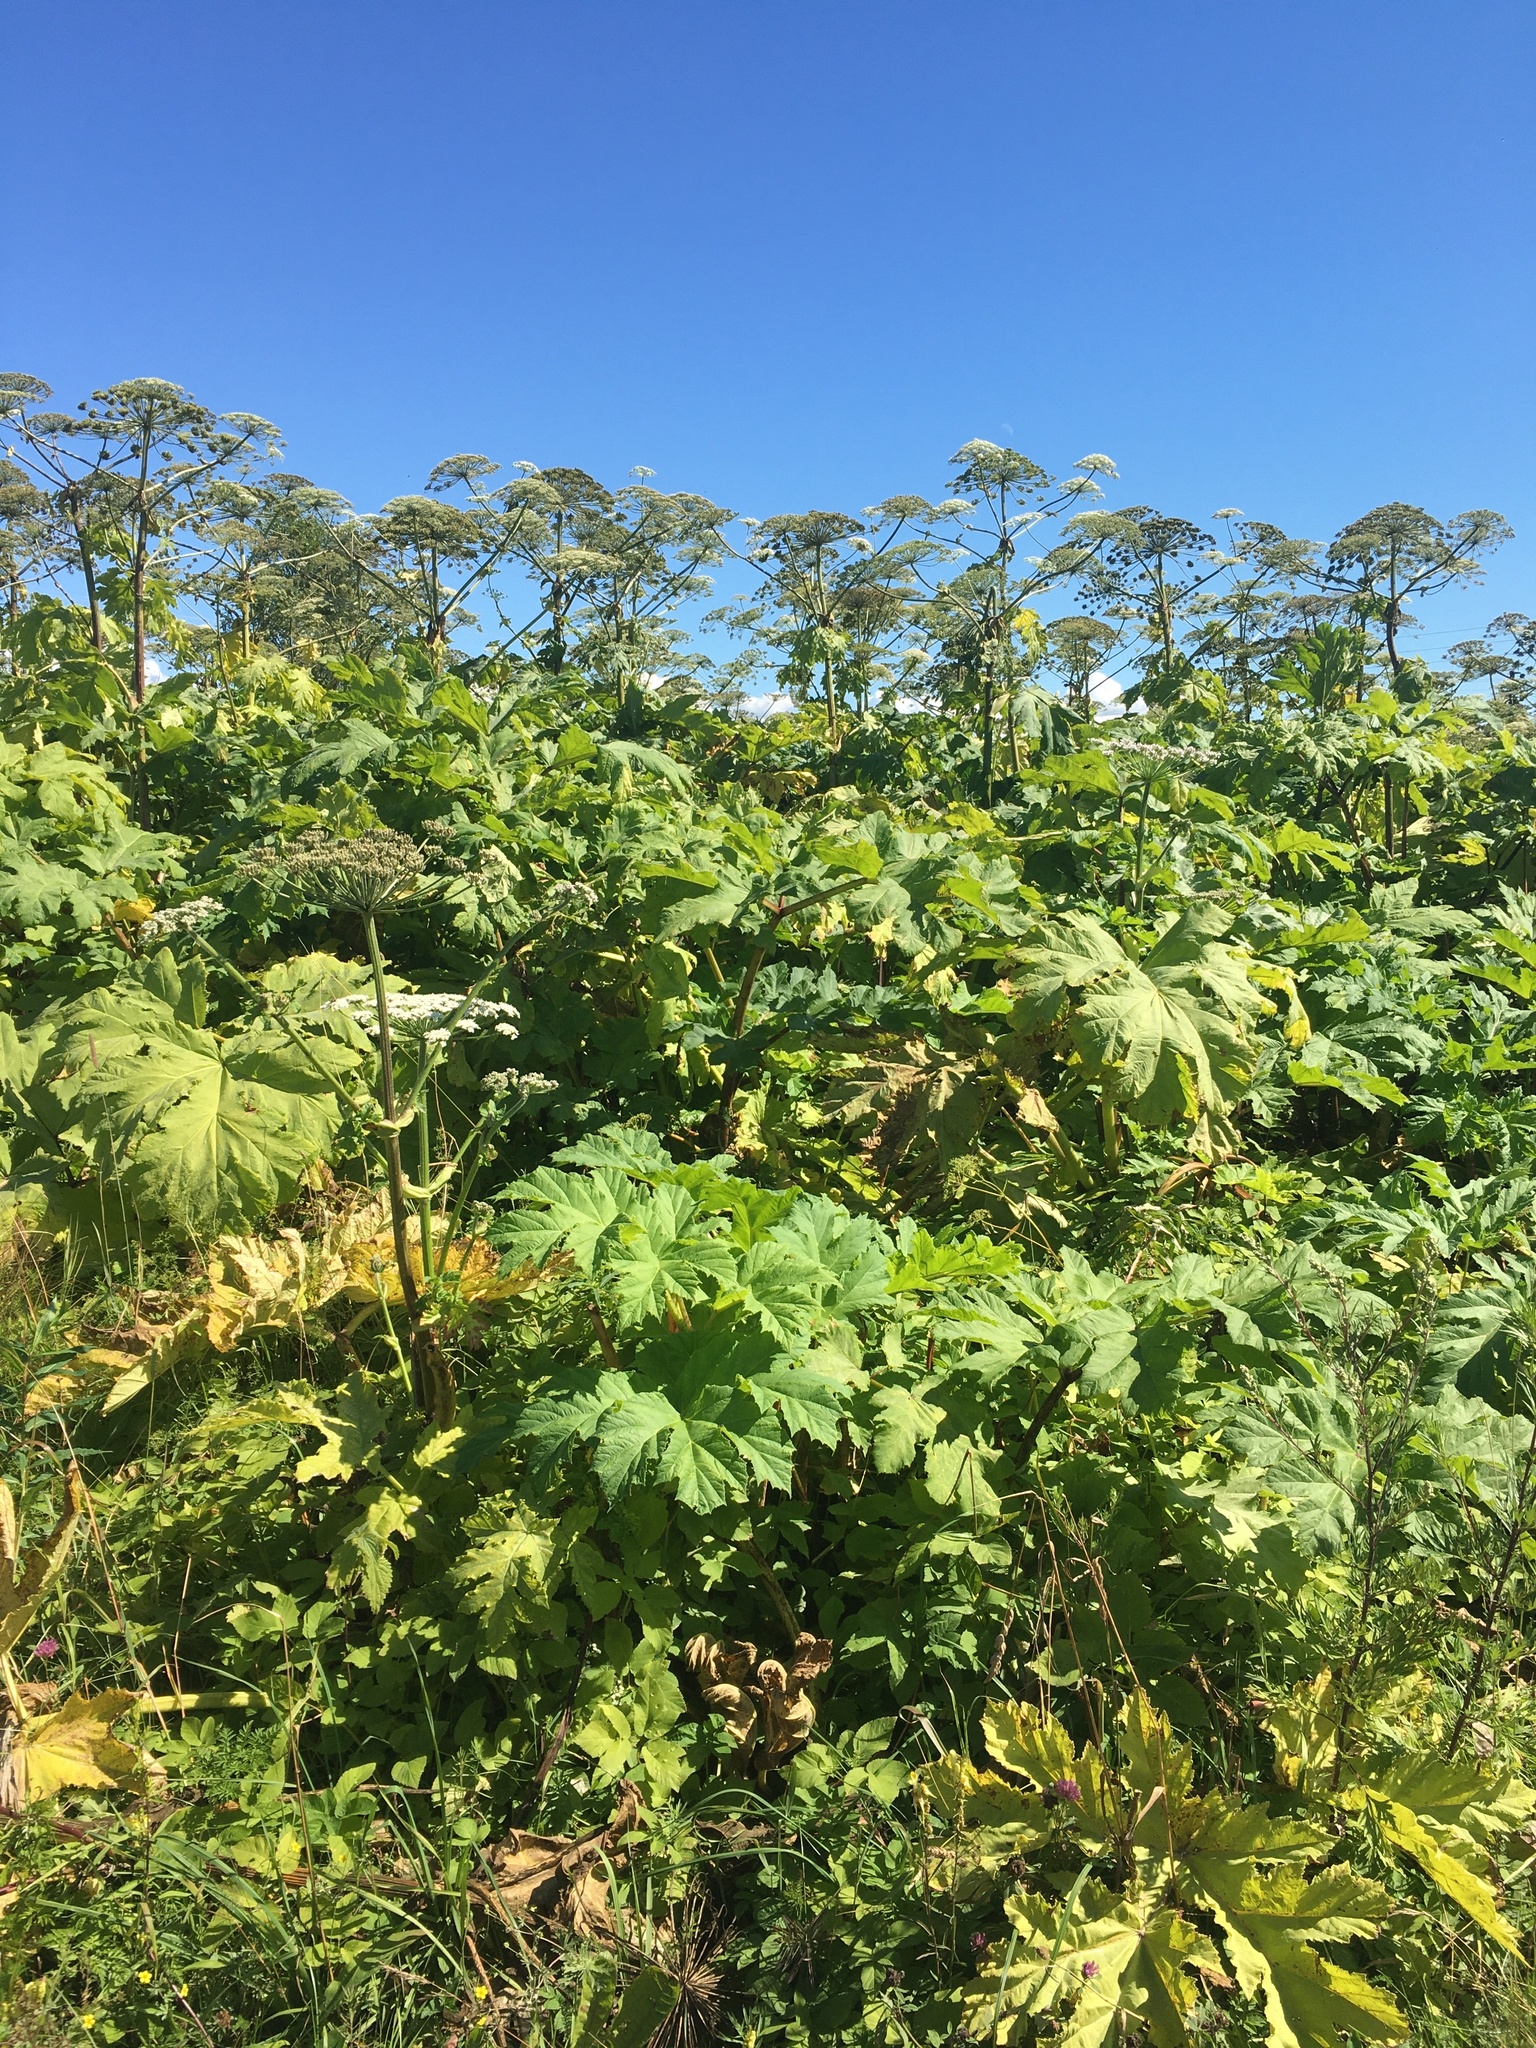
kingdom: Plantae
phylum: Tracheophyta
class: Magnoliopsida
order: Apiales
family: Apiaceae
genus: Heracleum
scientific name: Heracleum sosnowskyi
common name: Sosnowsky's hogweed
